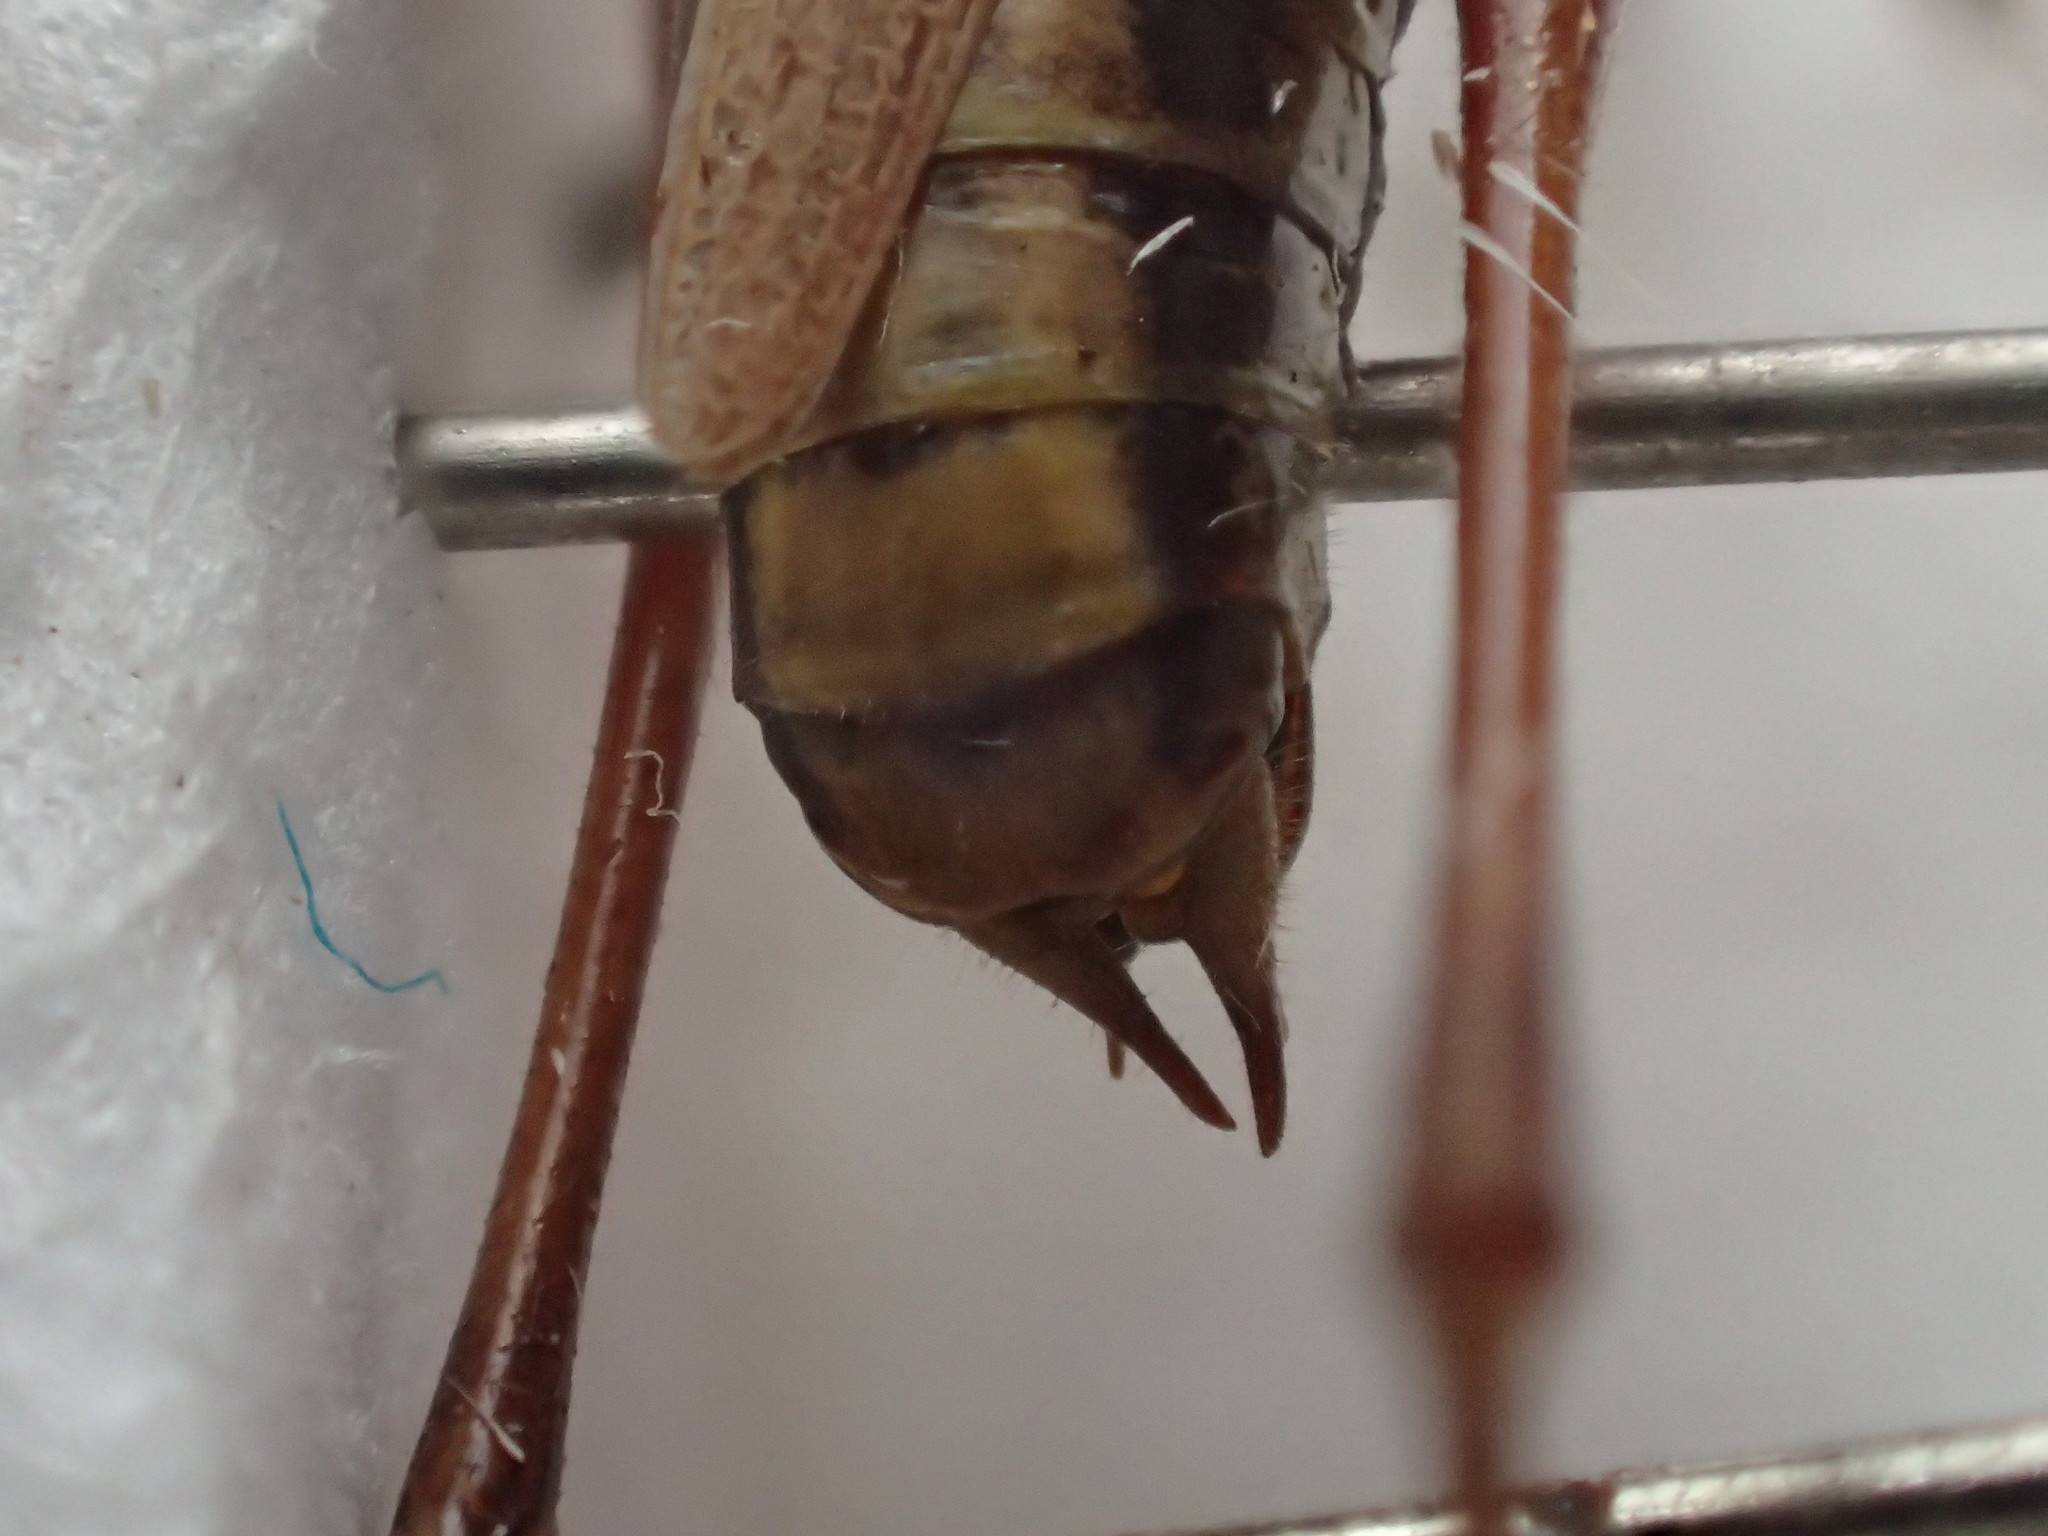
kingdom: Animalia
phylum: Arthropoda
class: Insecta
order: Orthoptera
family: Tettigoniidae
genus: Conocephalus
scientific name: Conocephalus albescens
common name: Whitish meadow katydid
